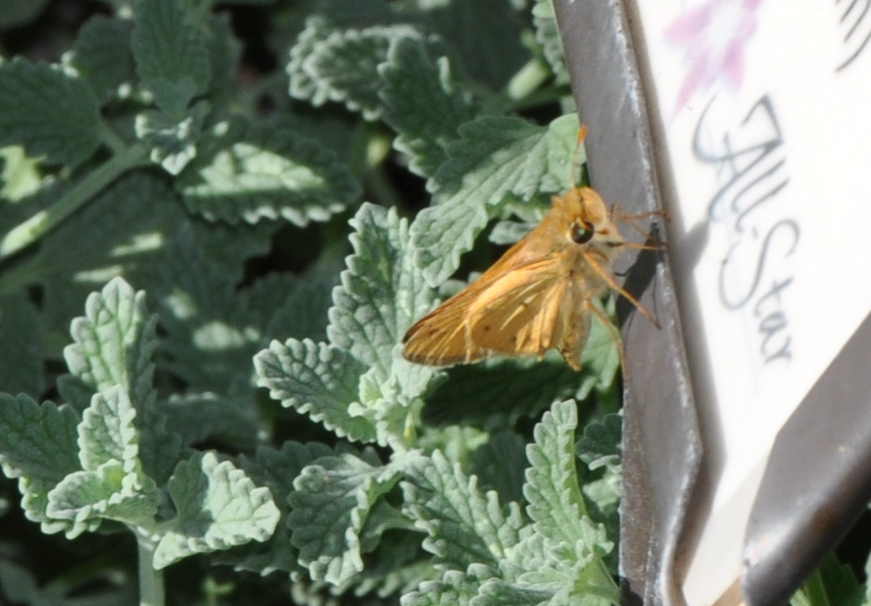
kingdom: Animalia
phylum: Arthropoda
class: Insecta
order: Lepidoptera
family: Hesperiidae
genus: Hylephila
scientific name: Hylephila phyleus
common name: Fiery skipper
